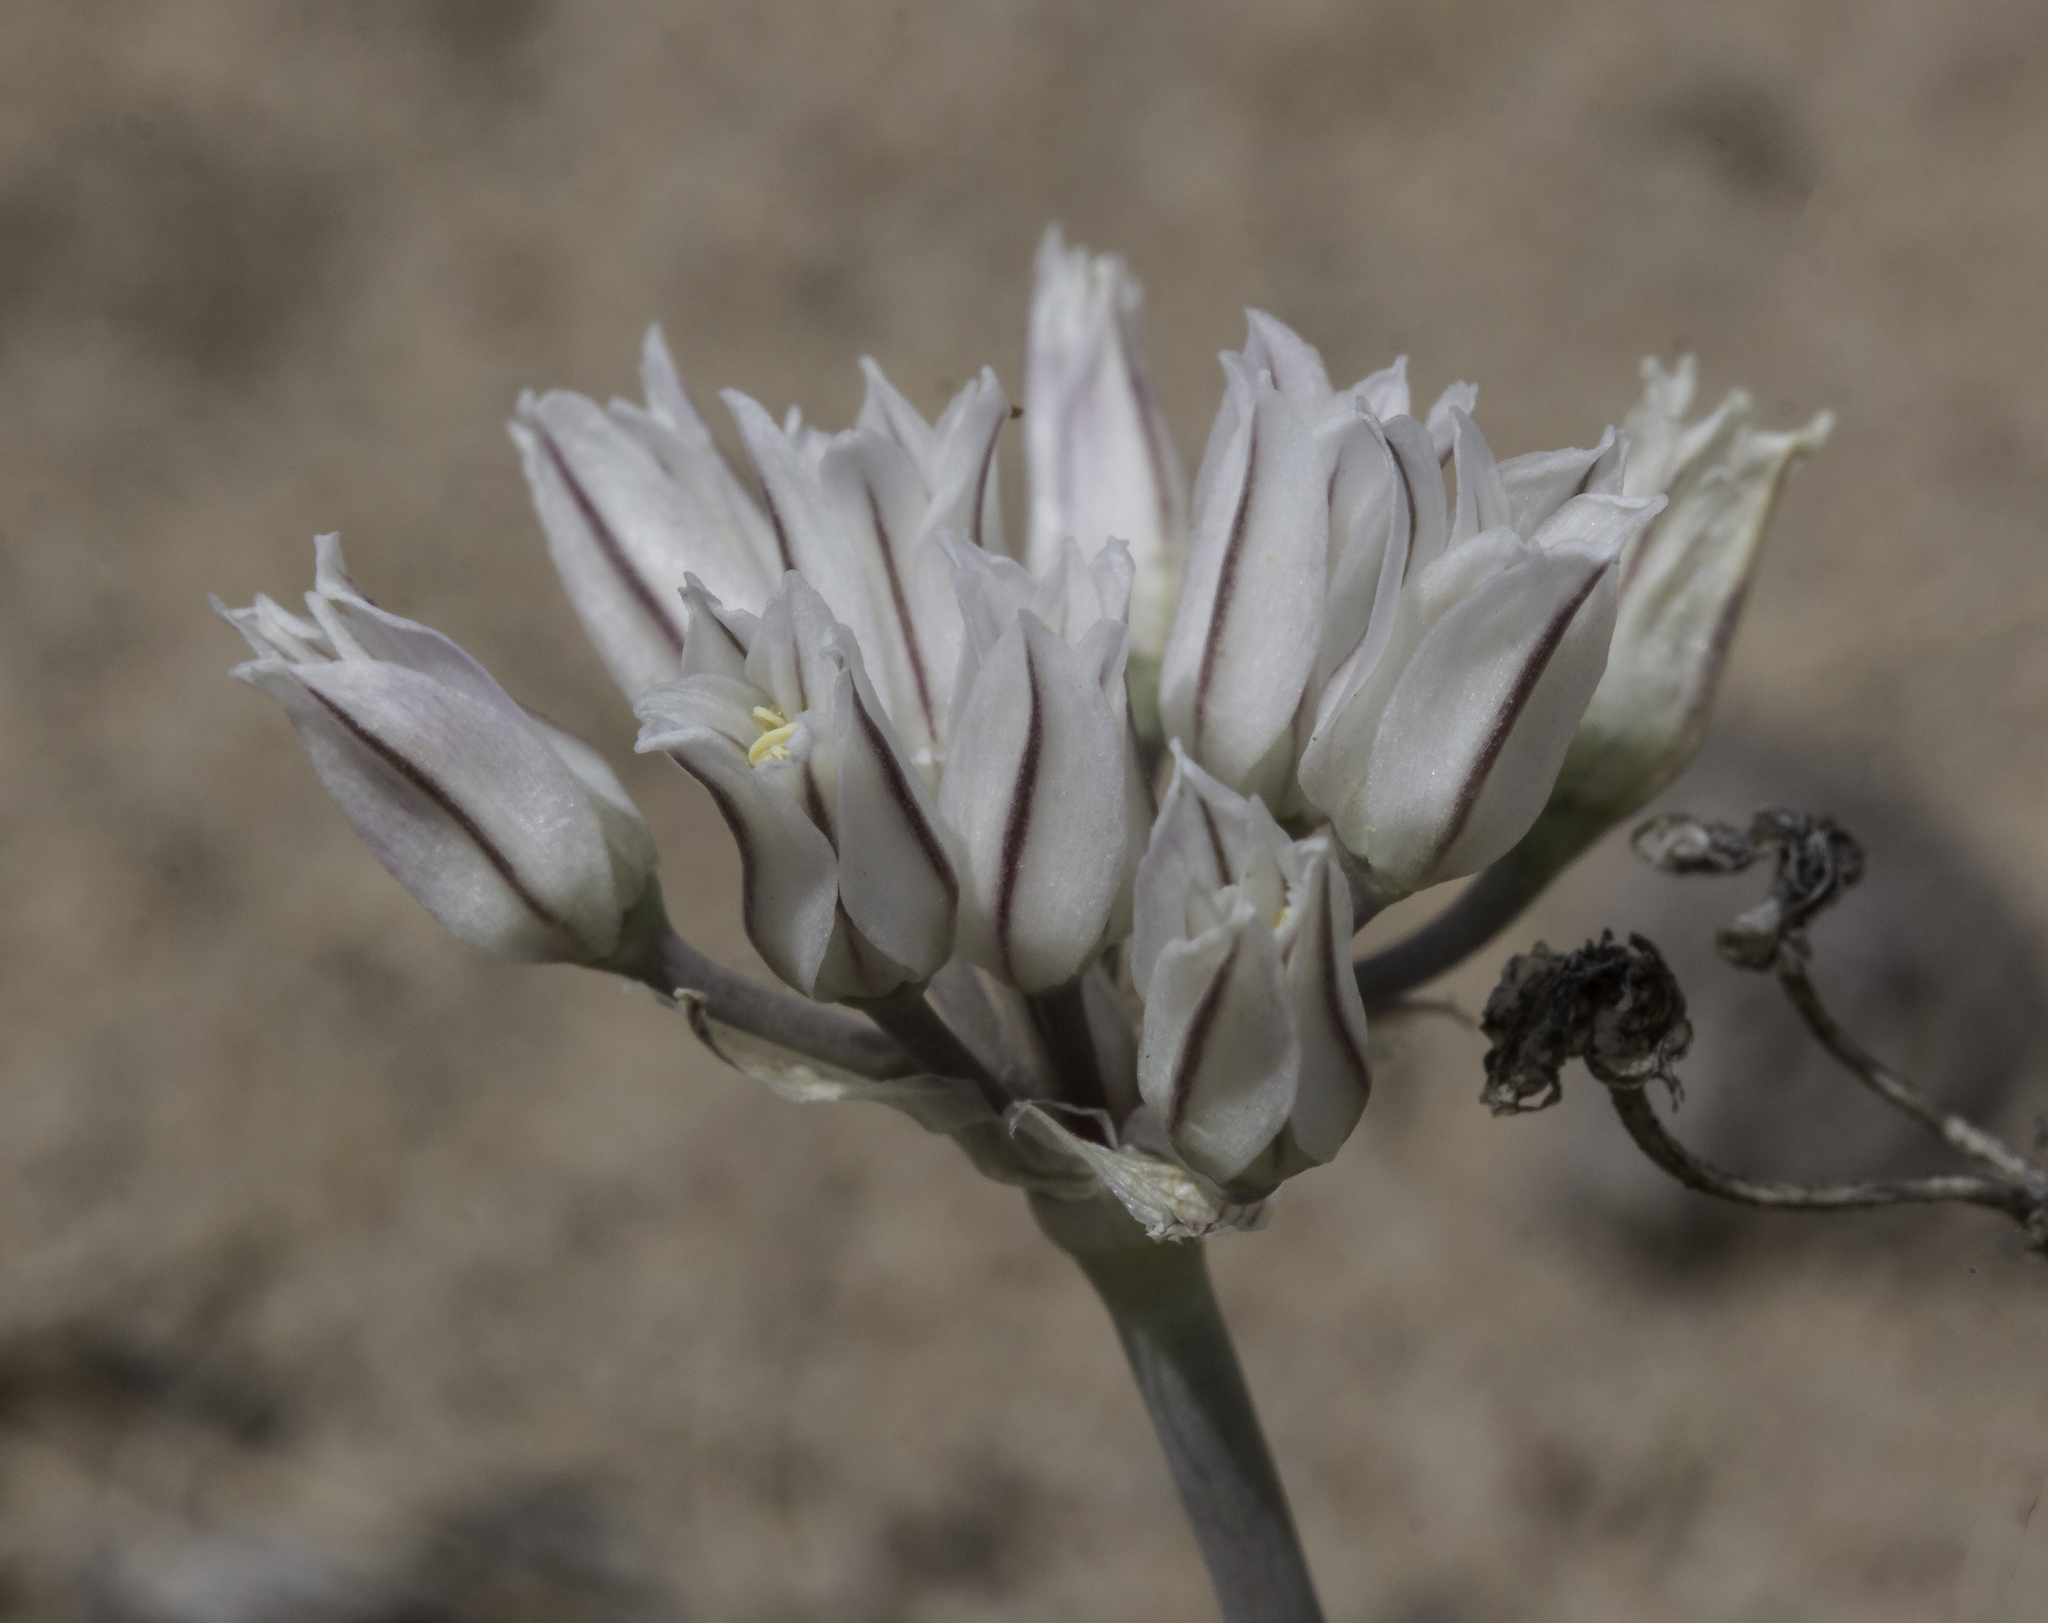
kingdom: Plantae
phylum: Tracheophyta
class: Liliopsida
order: Asparagales
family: Amaryllidaceae
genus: Allium
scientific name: Allium macropetalum
